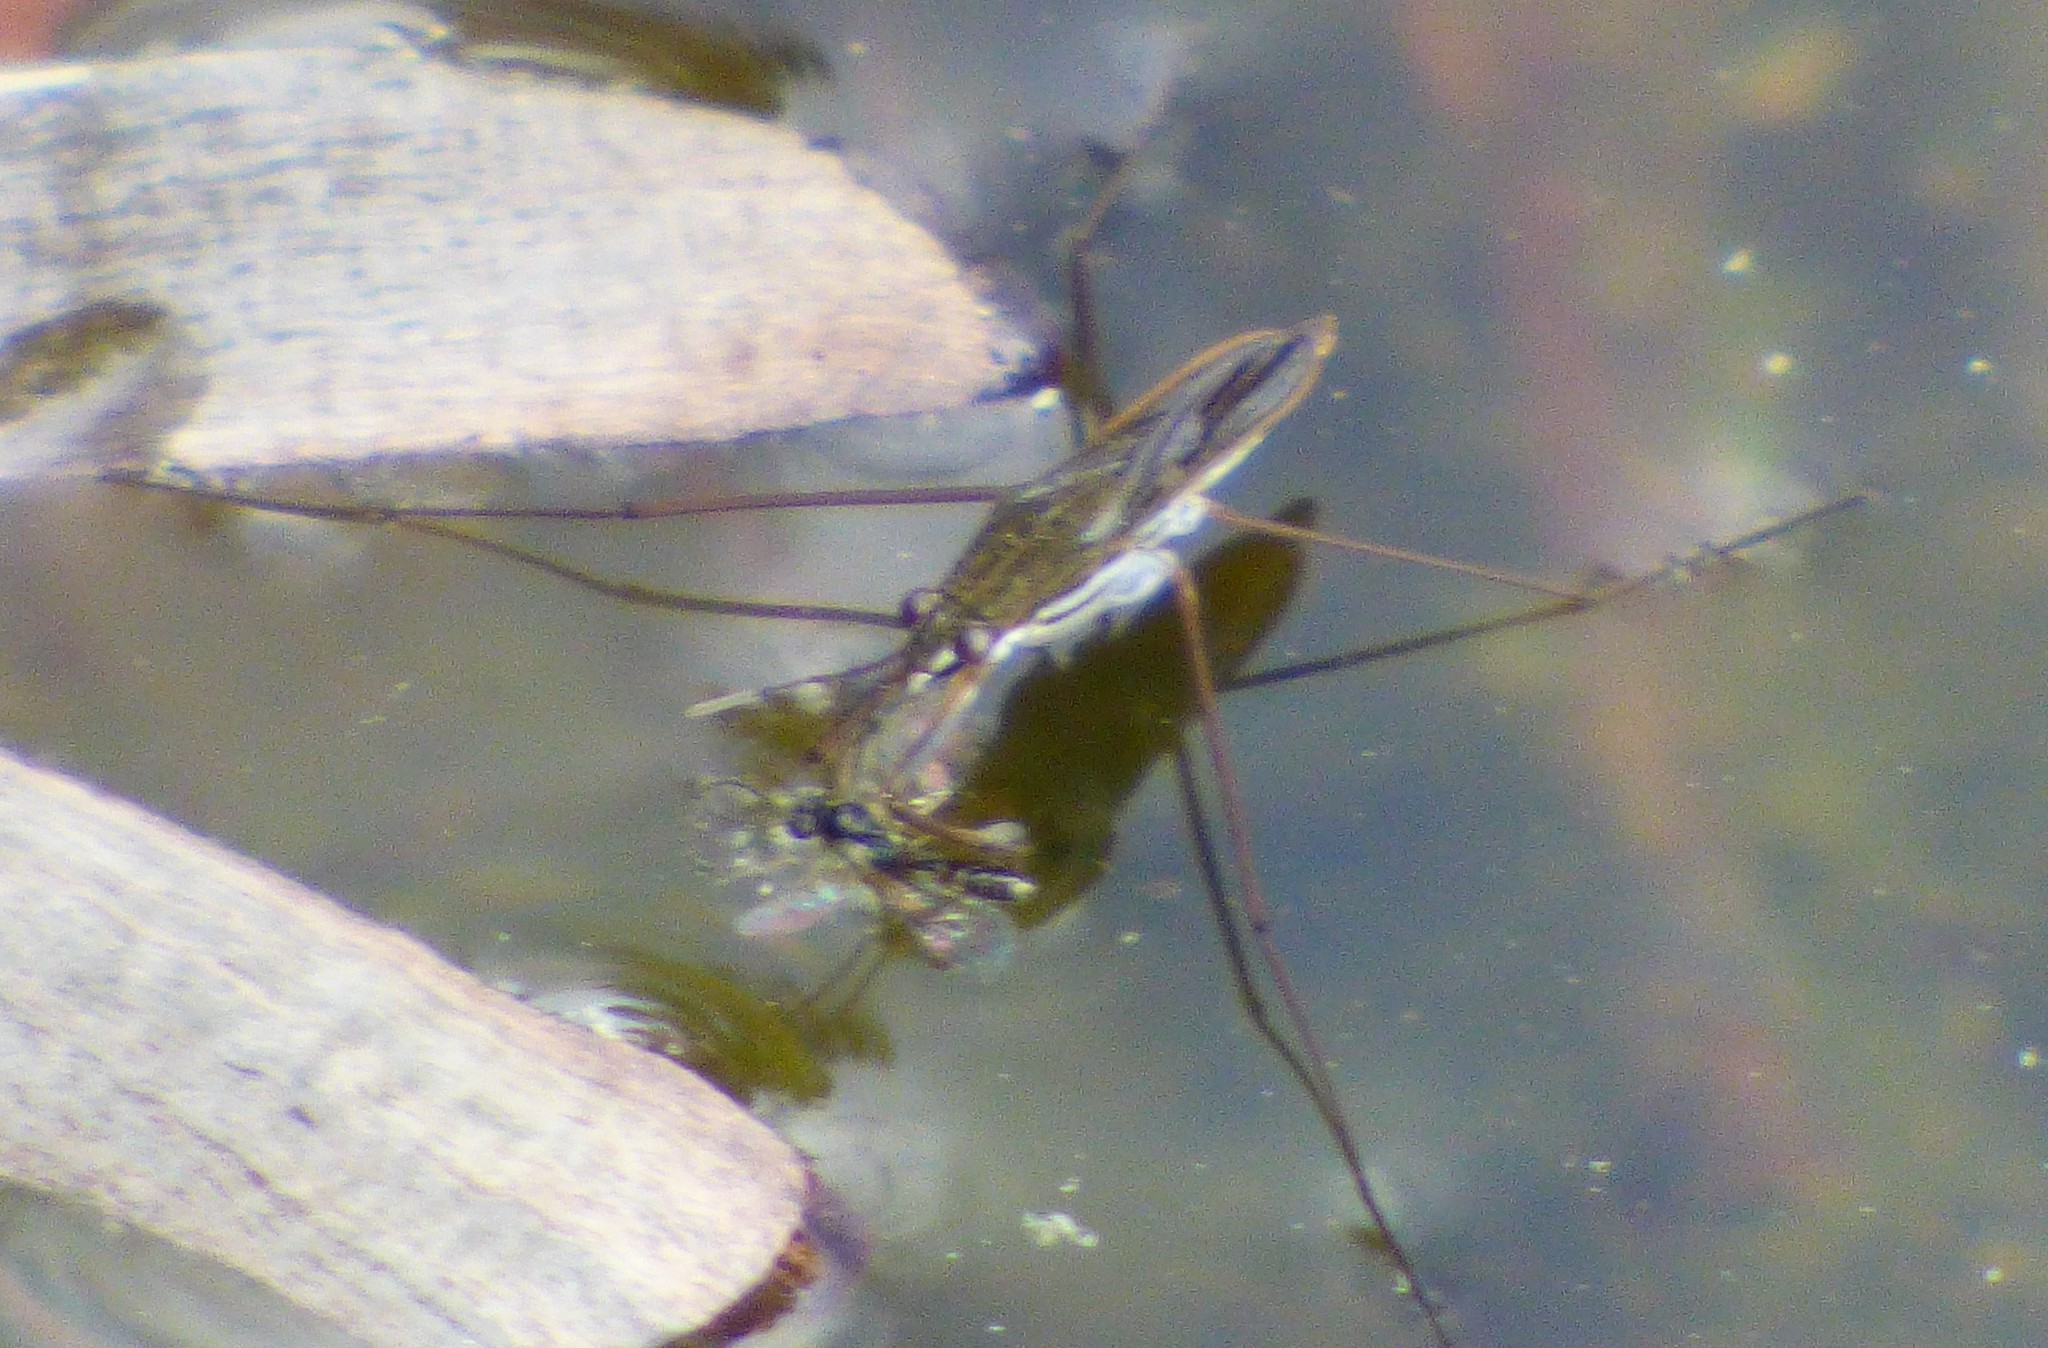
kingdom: Animalia
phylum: Arthropoda
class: Insecta
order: Hemiptera
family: Gerridae
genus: Gerris
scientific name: Gerris
